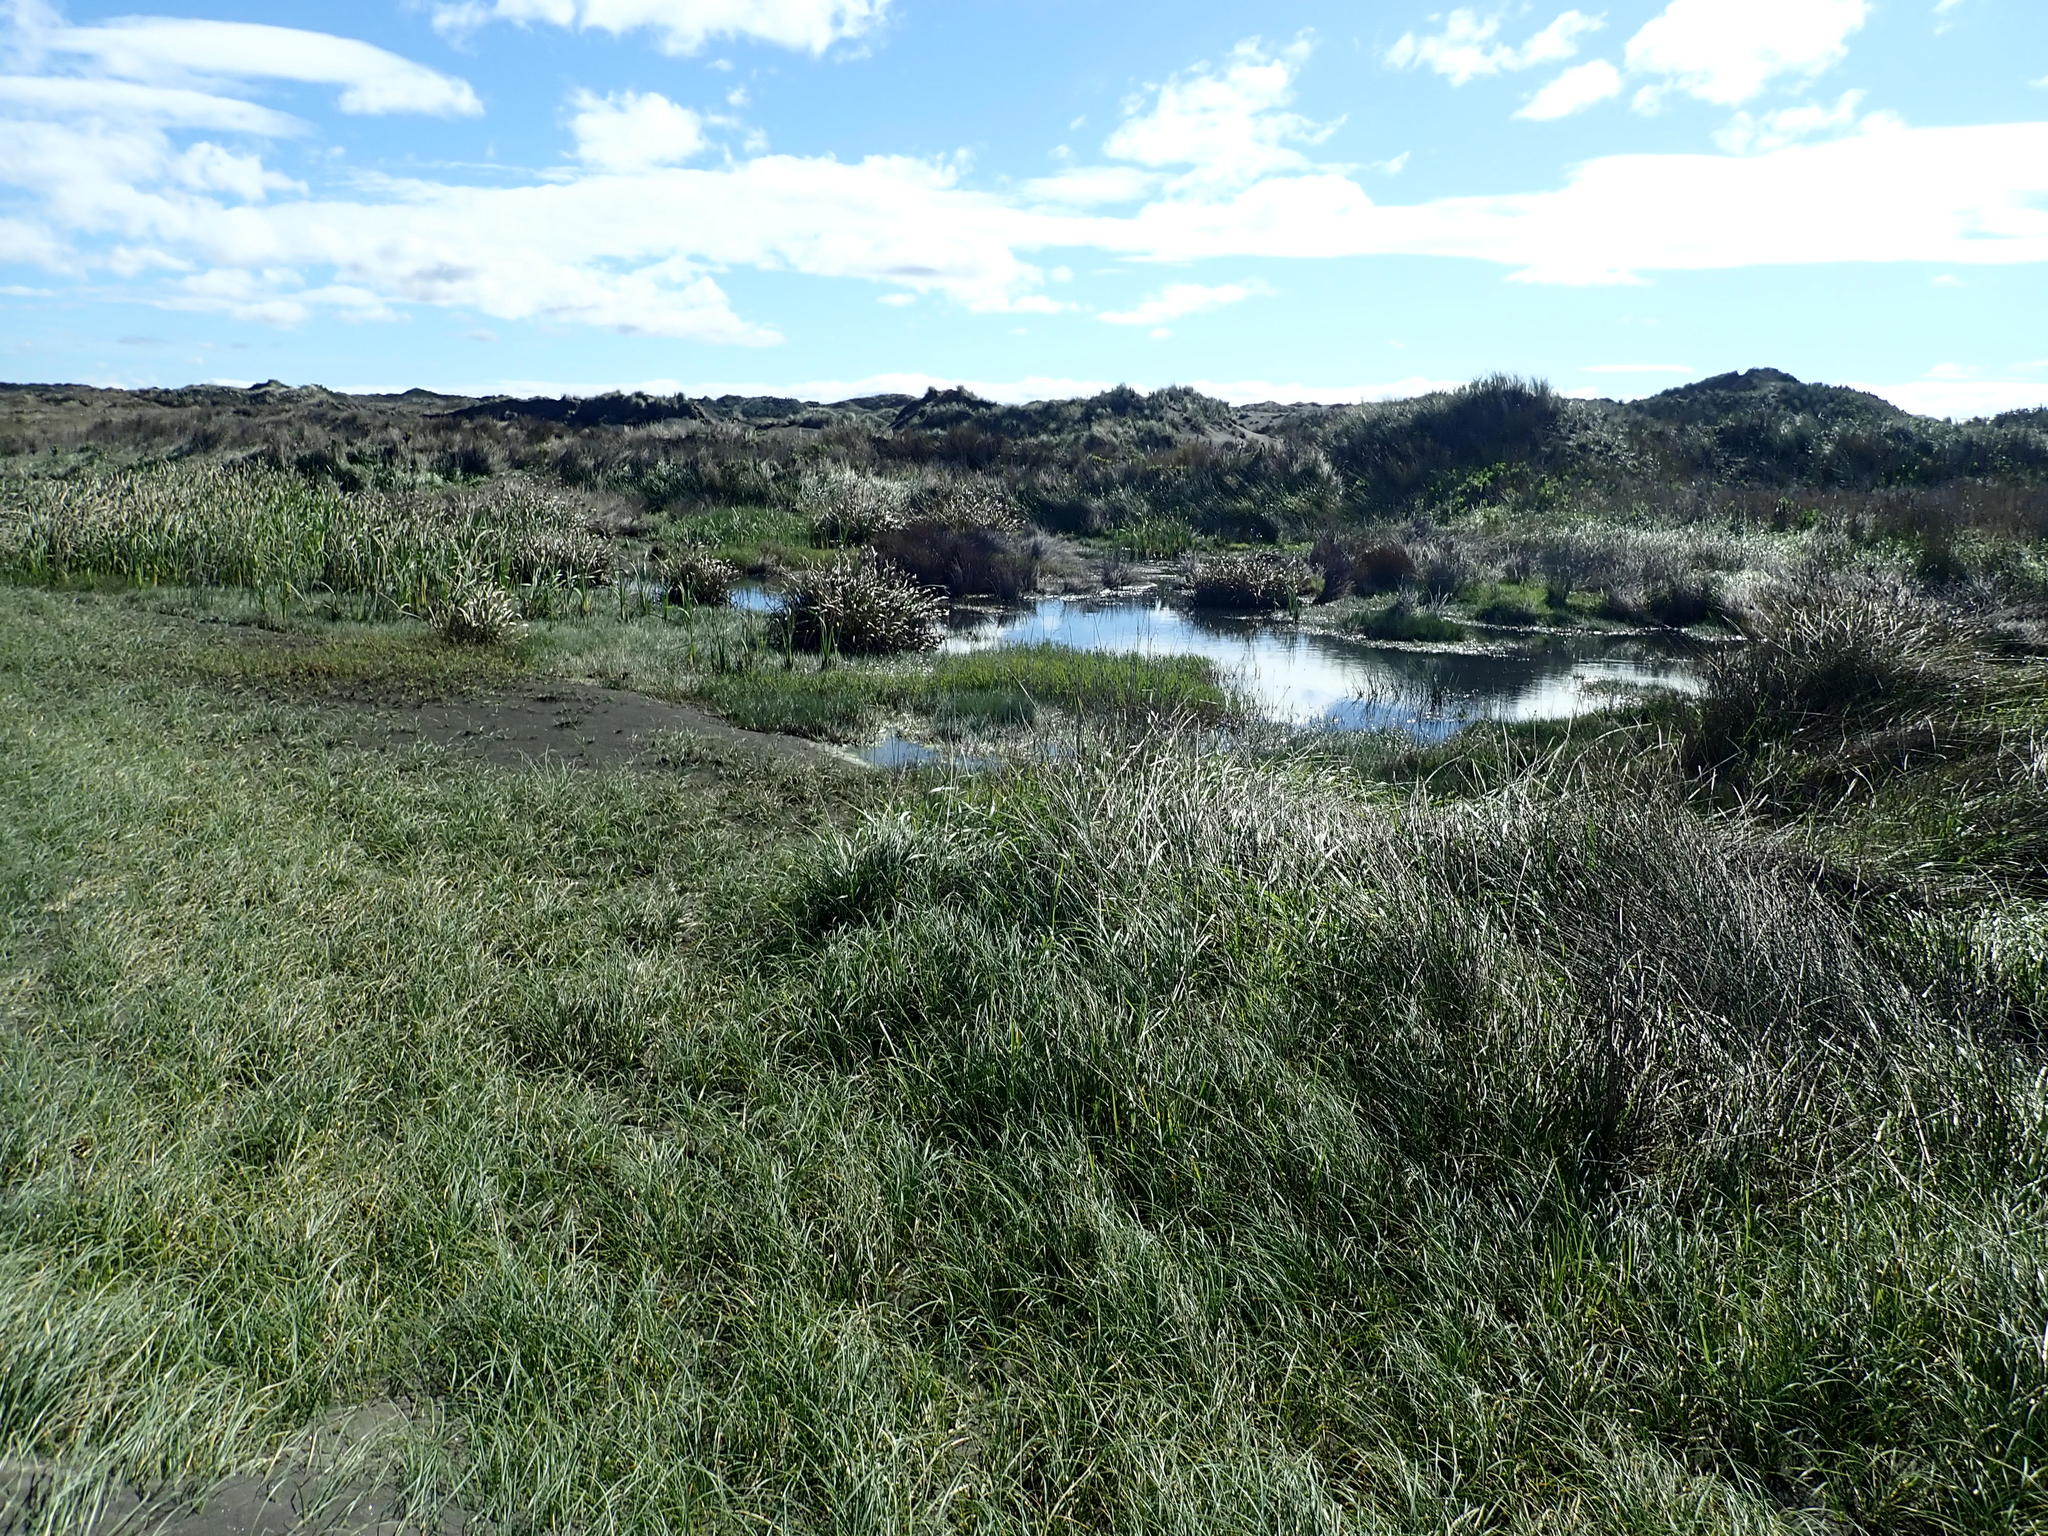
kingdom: Plantae
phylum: Tracheophyta
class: Liliopsida
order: Poales
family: Cyperaceae
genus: Cyperus
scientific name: Cyperus ustulatus
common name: Giant umbrella-sedge
